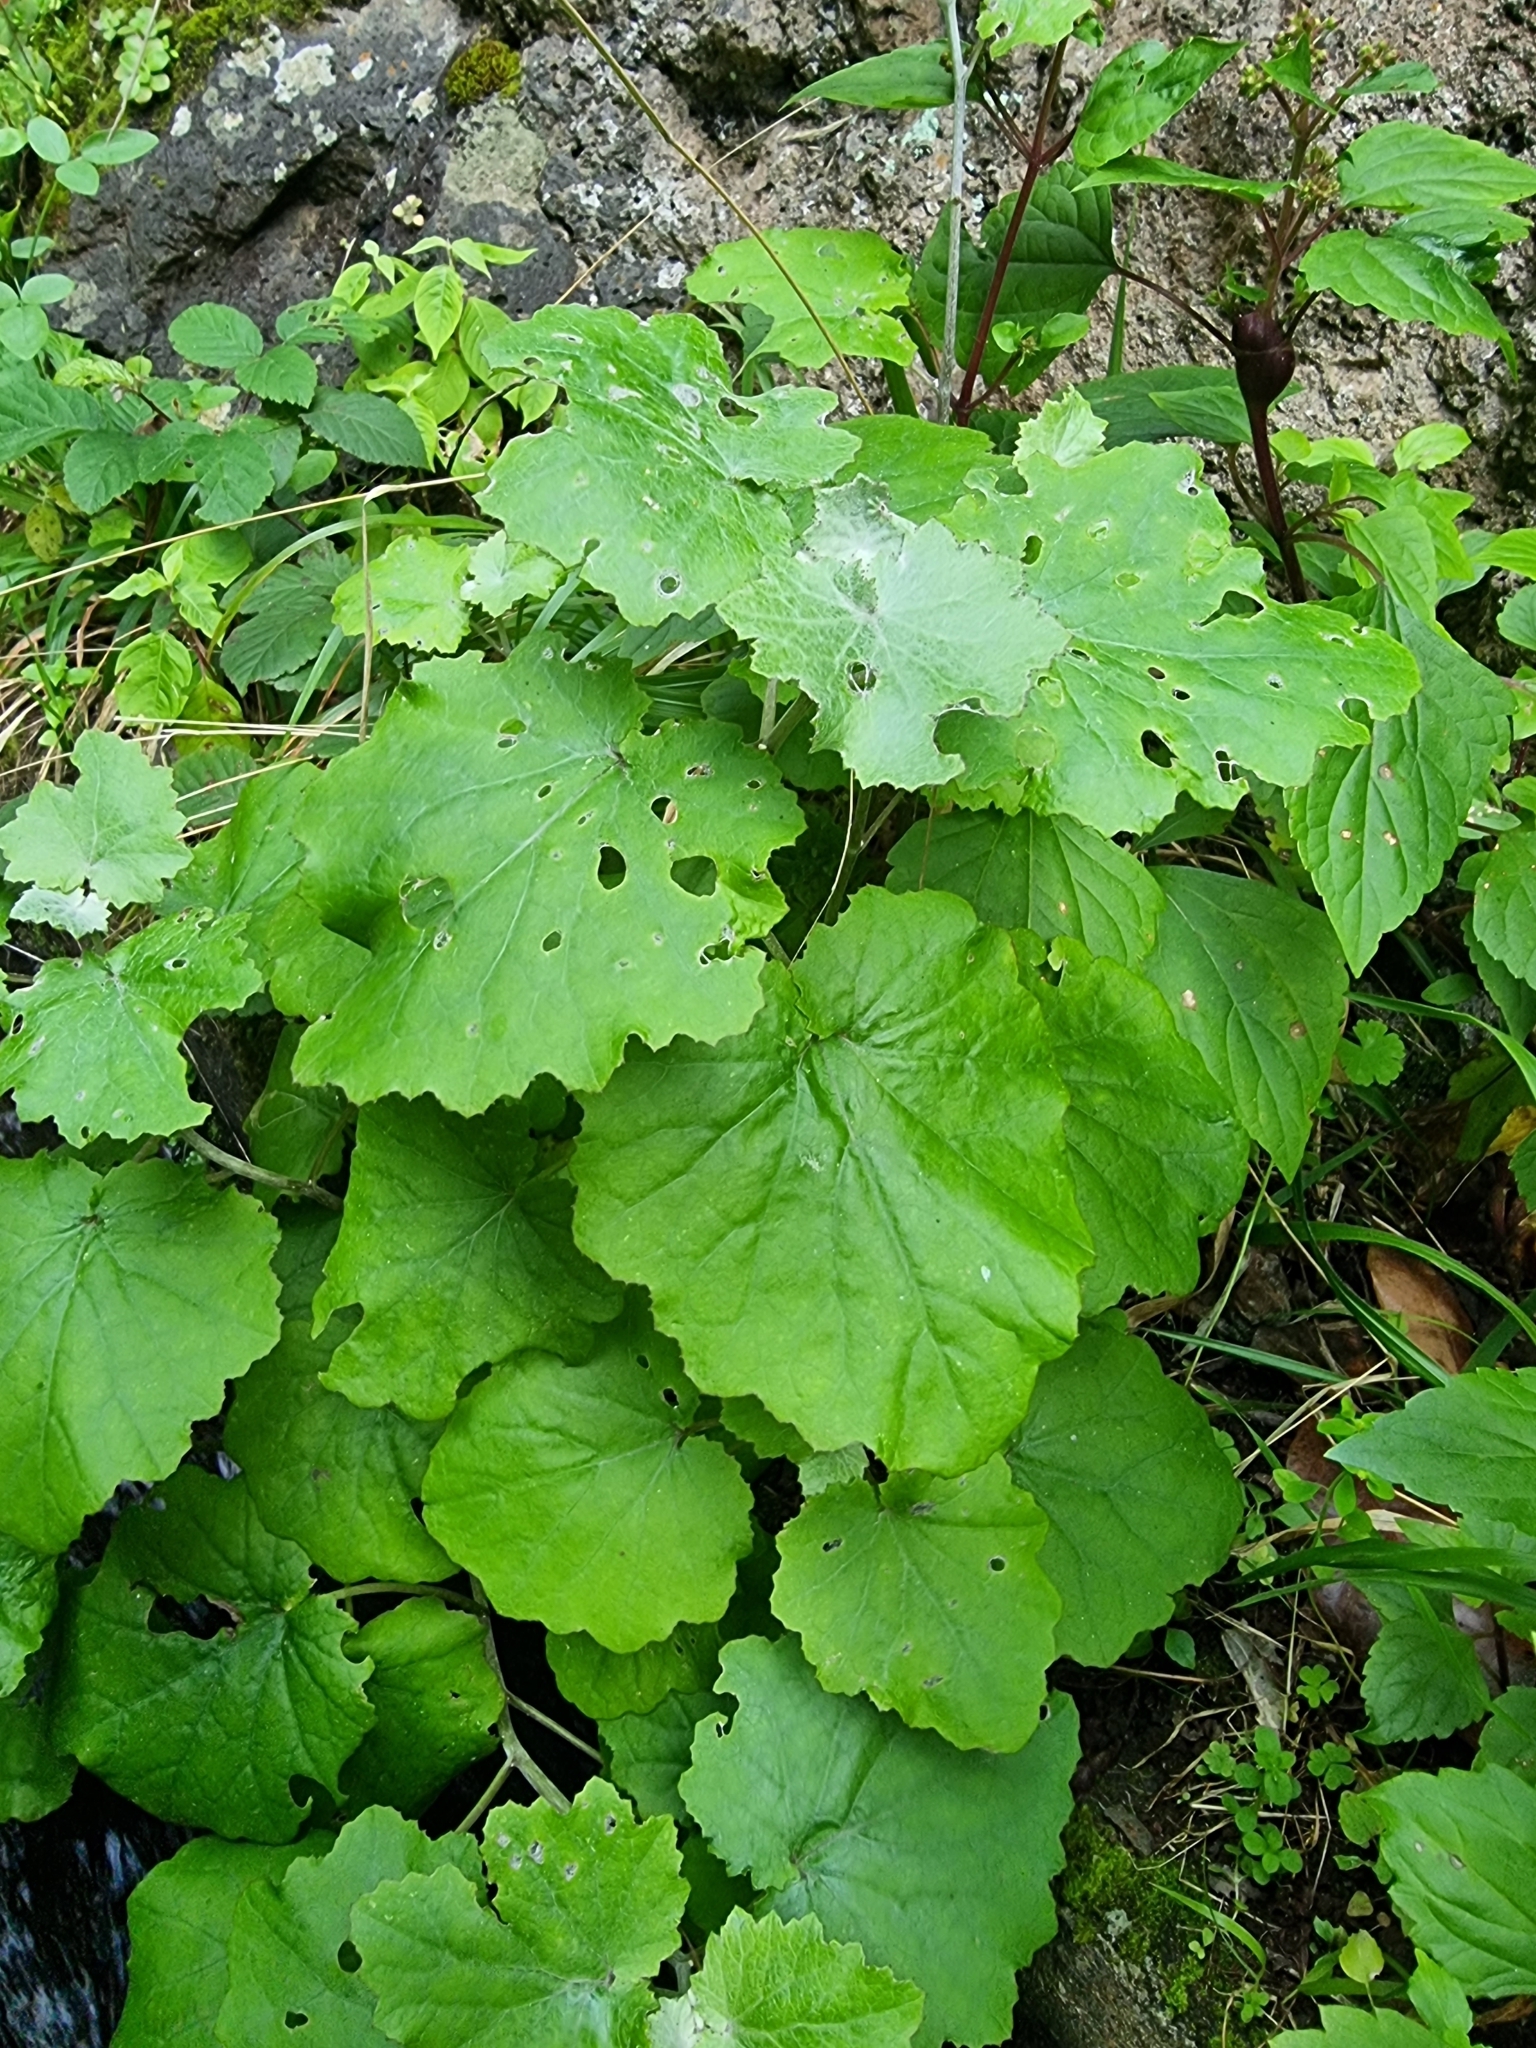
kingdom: Plantae
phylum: Tracheophyta
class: Magnoliopsida
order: Asterales
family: Asteraceae
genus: Pericallis
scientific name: Pericallis aurita
